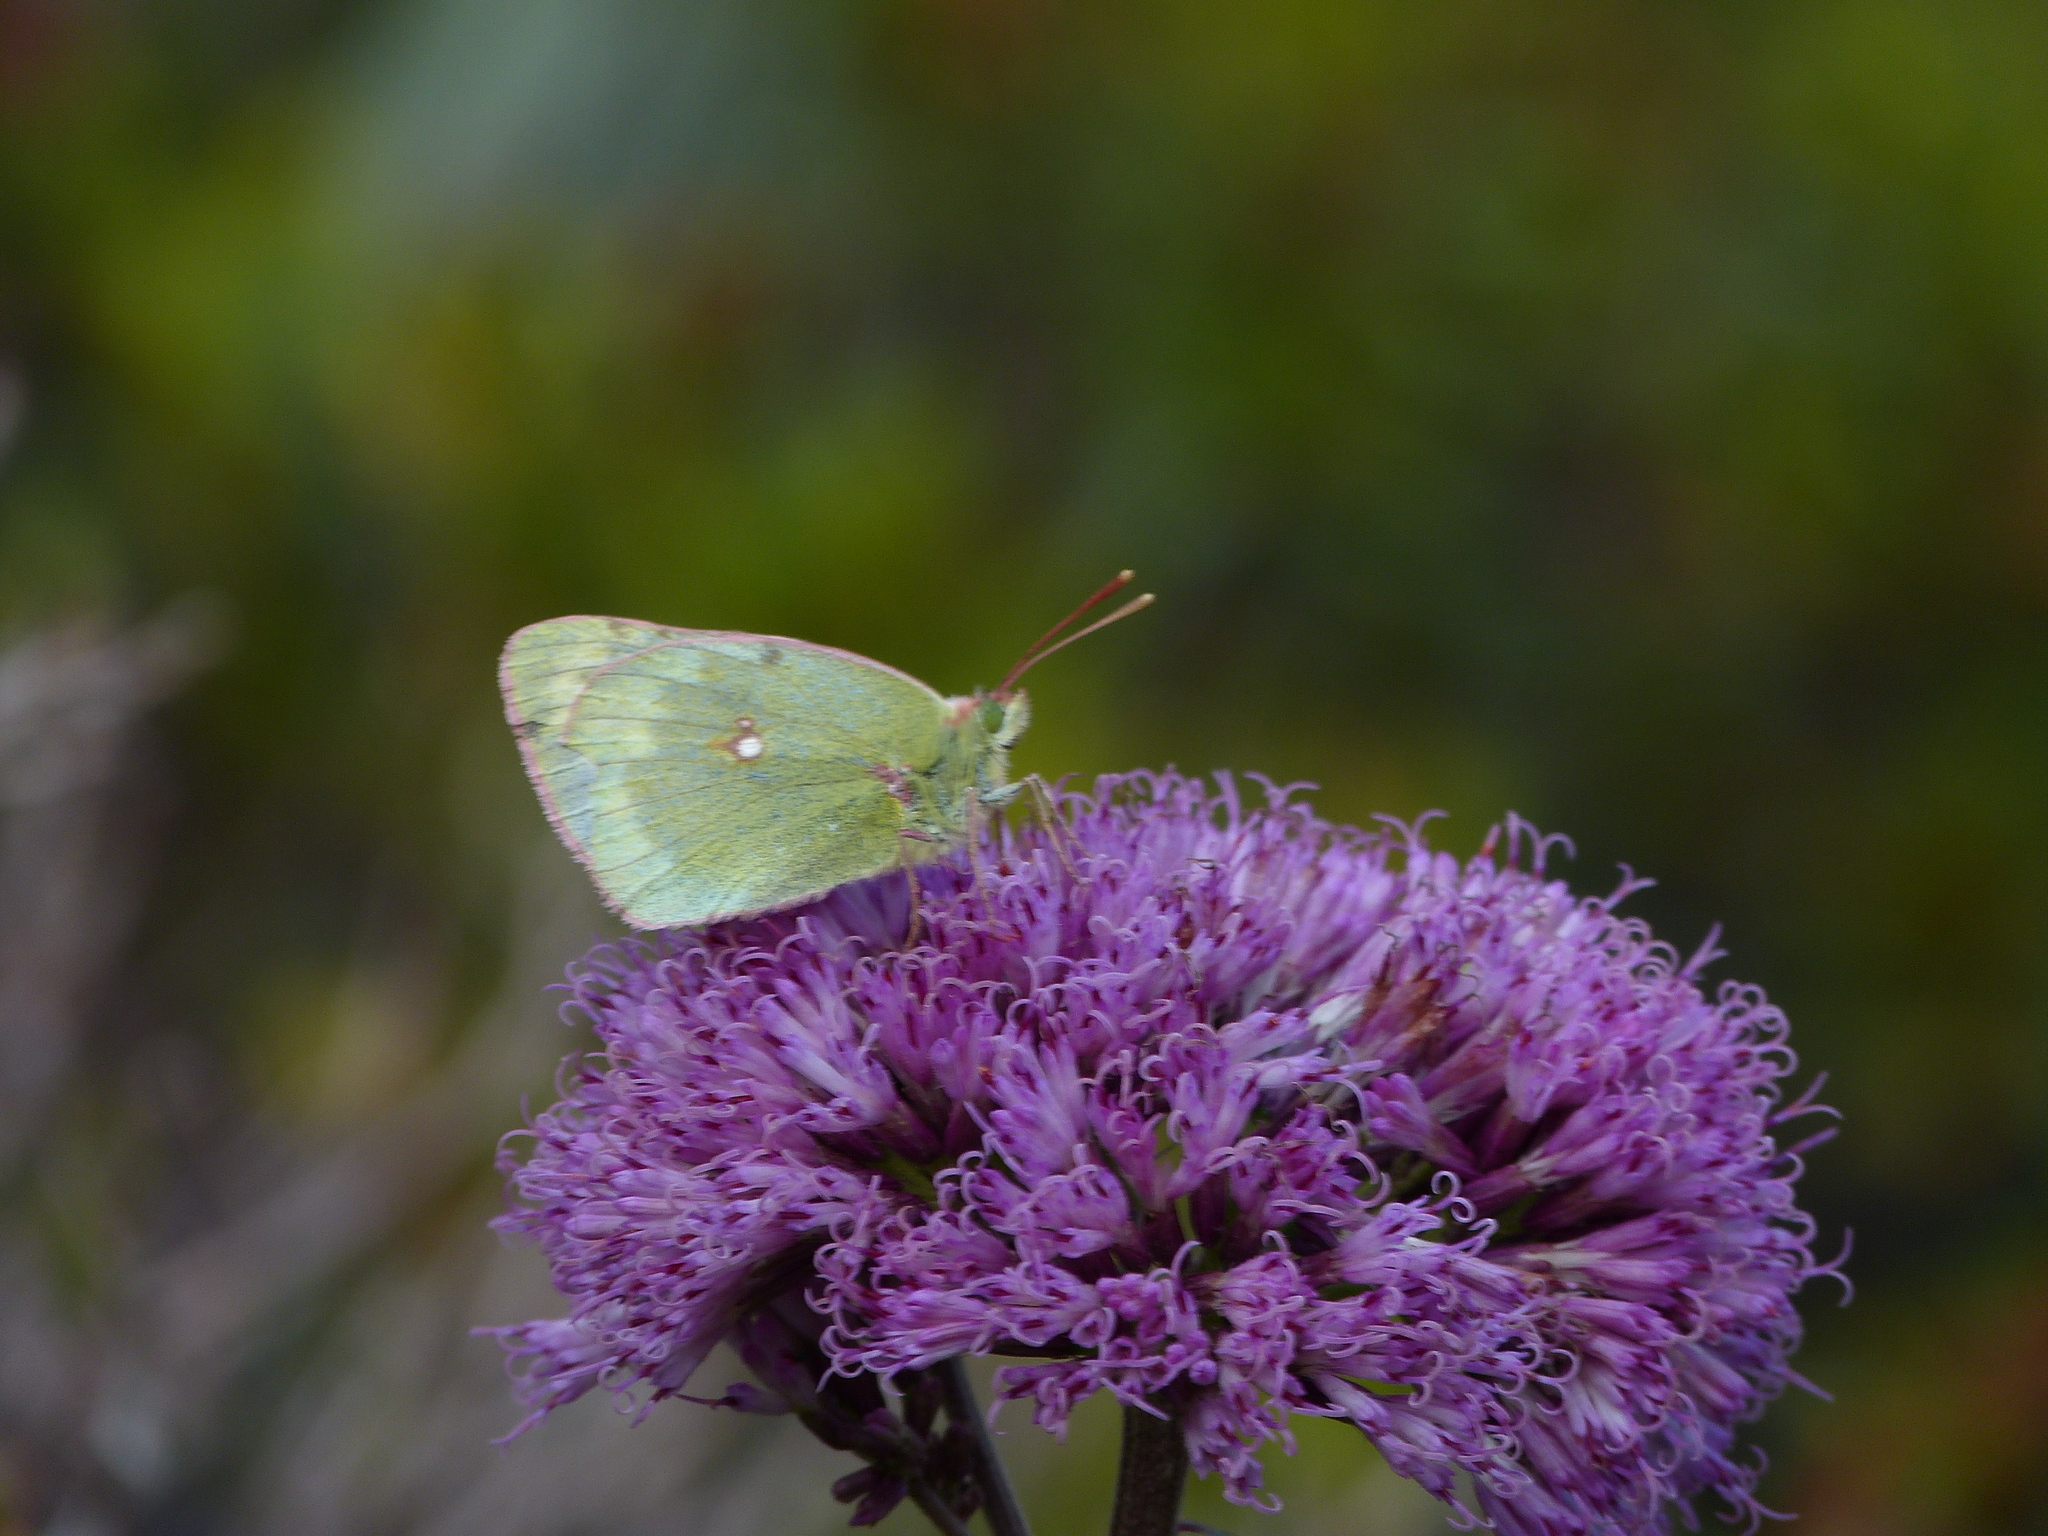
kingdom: Animalia
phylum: Arthropoda
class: Insecta
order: Lepidoptera
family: Pieridae
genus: Colias
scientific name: Colias phicomone
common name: Mountain clouded yellow
